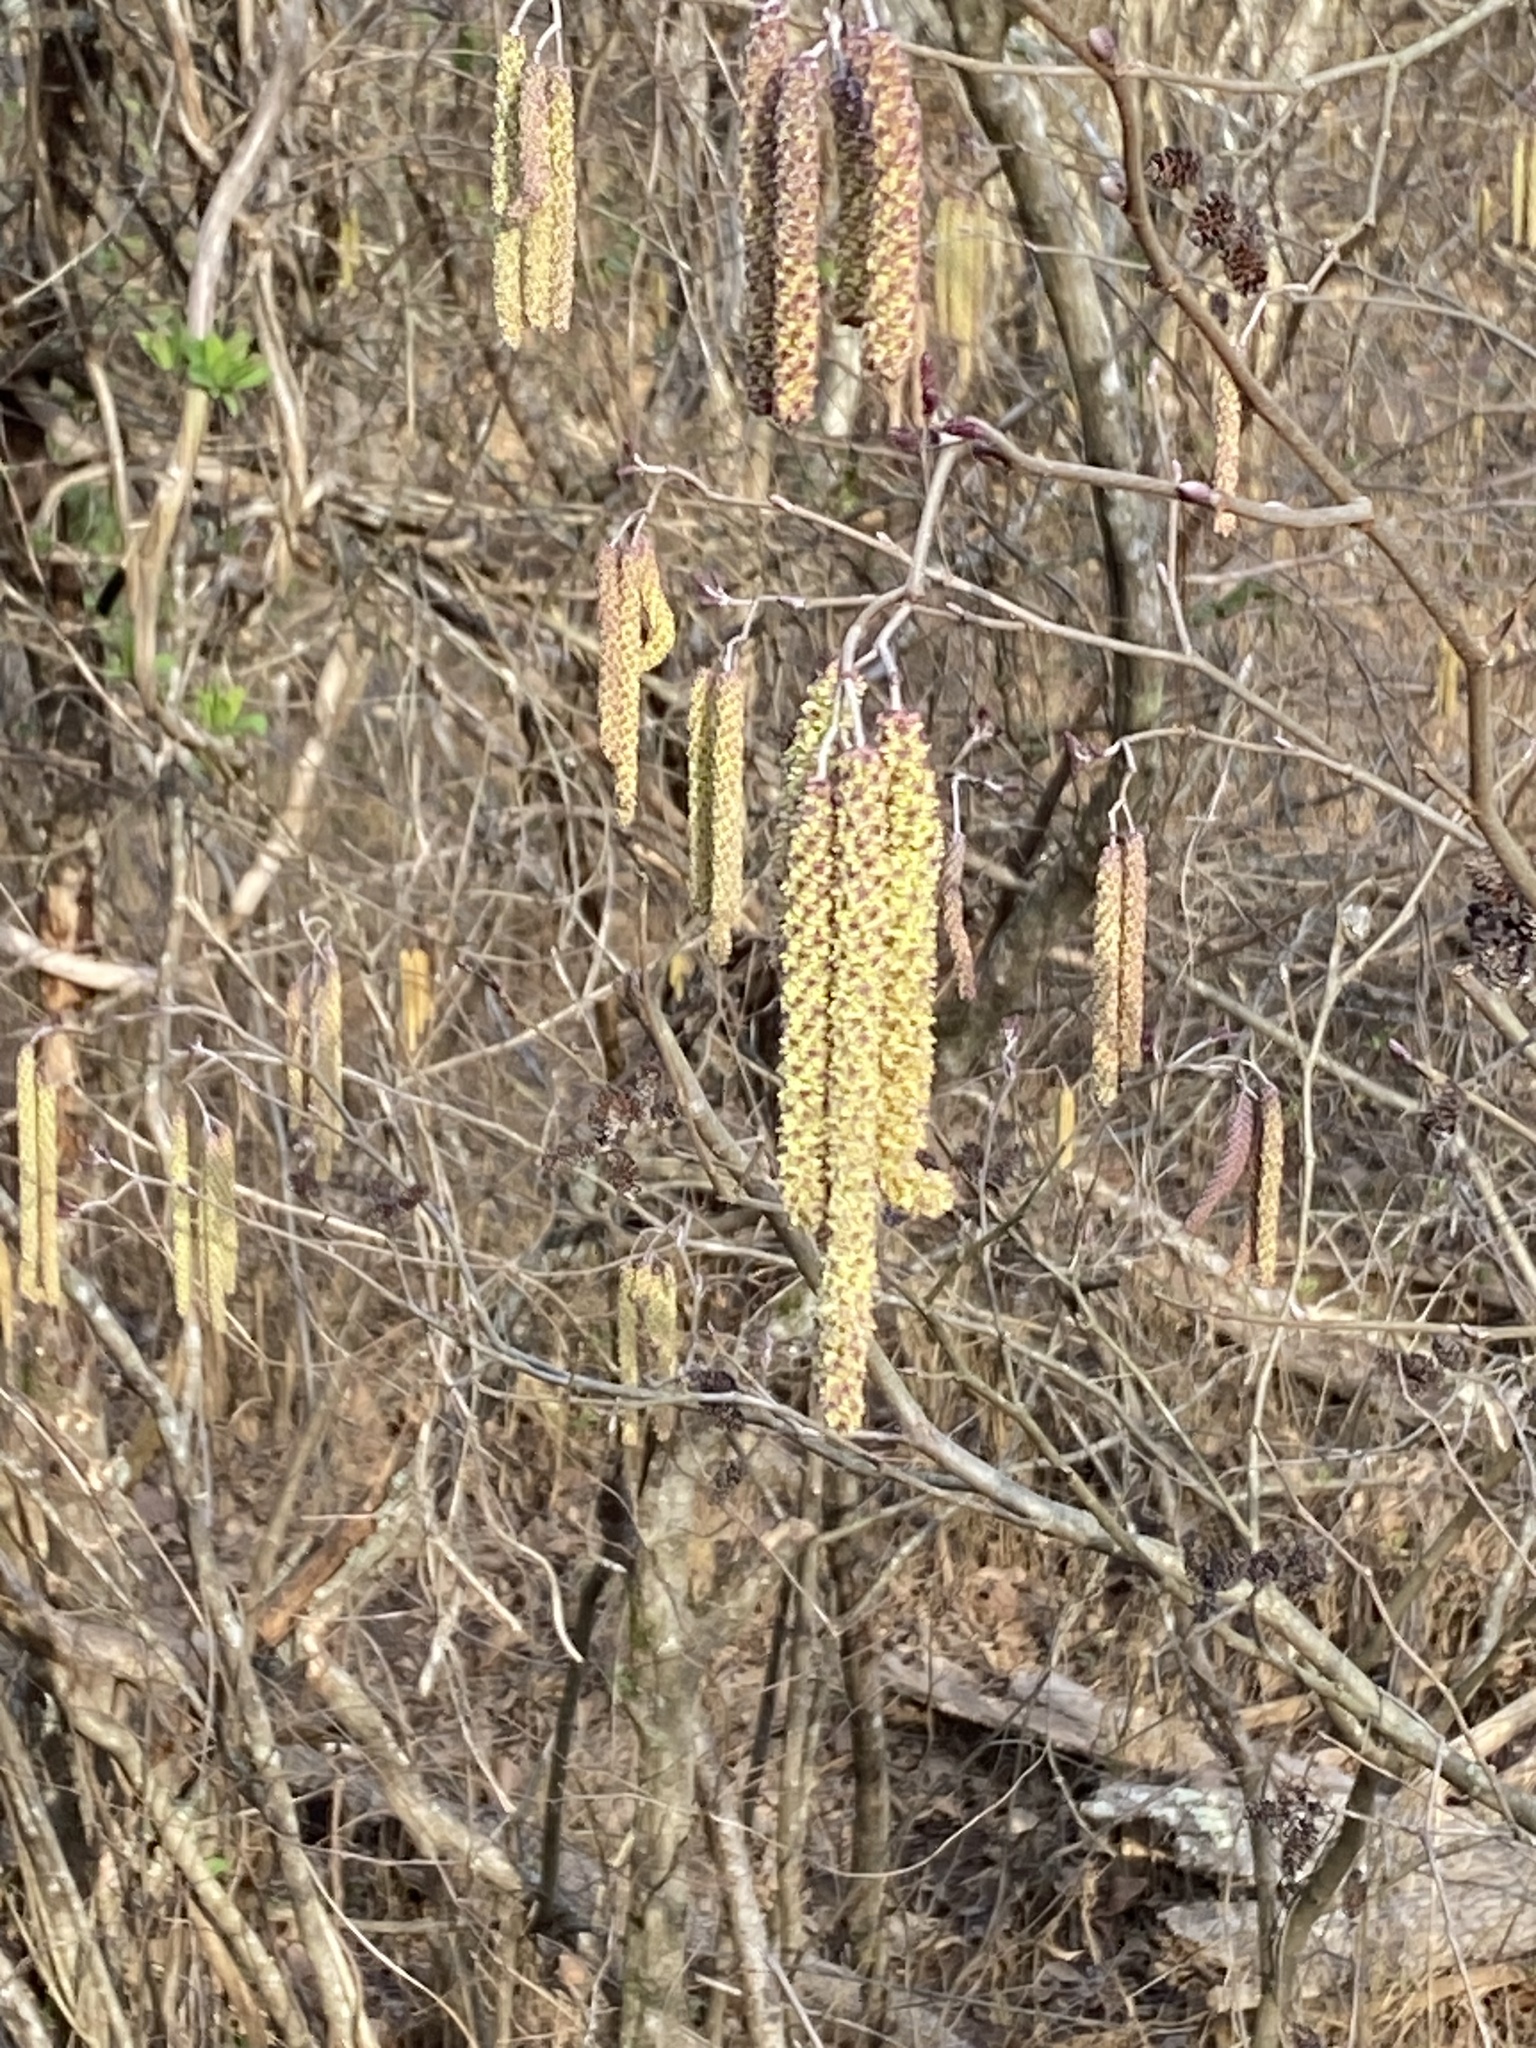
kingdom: Plantae
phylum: Tracheophyta
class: Magnoliopsida
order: Fagales
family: Betulaceae
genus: Alnus
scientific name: Alnus serrulata
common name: Hazel alder
